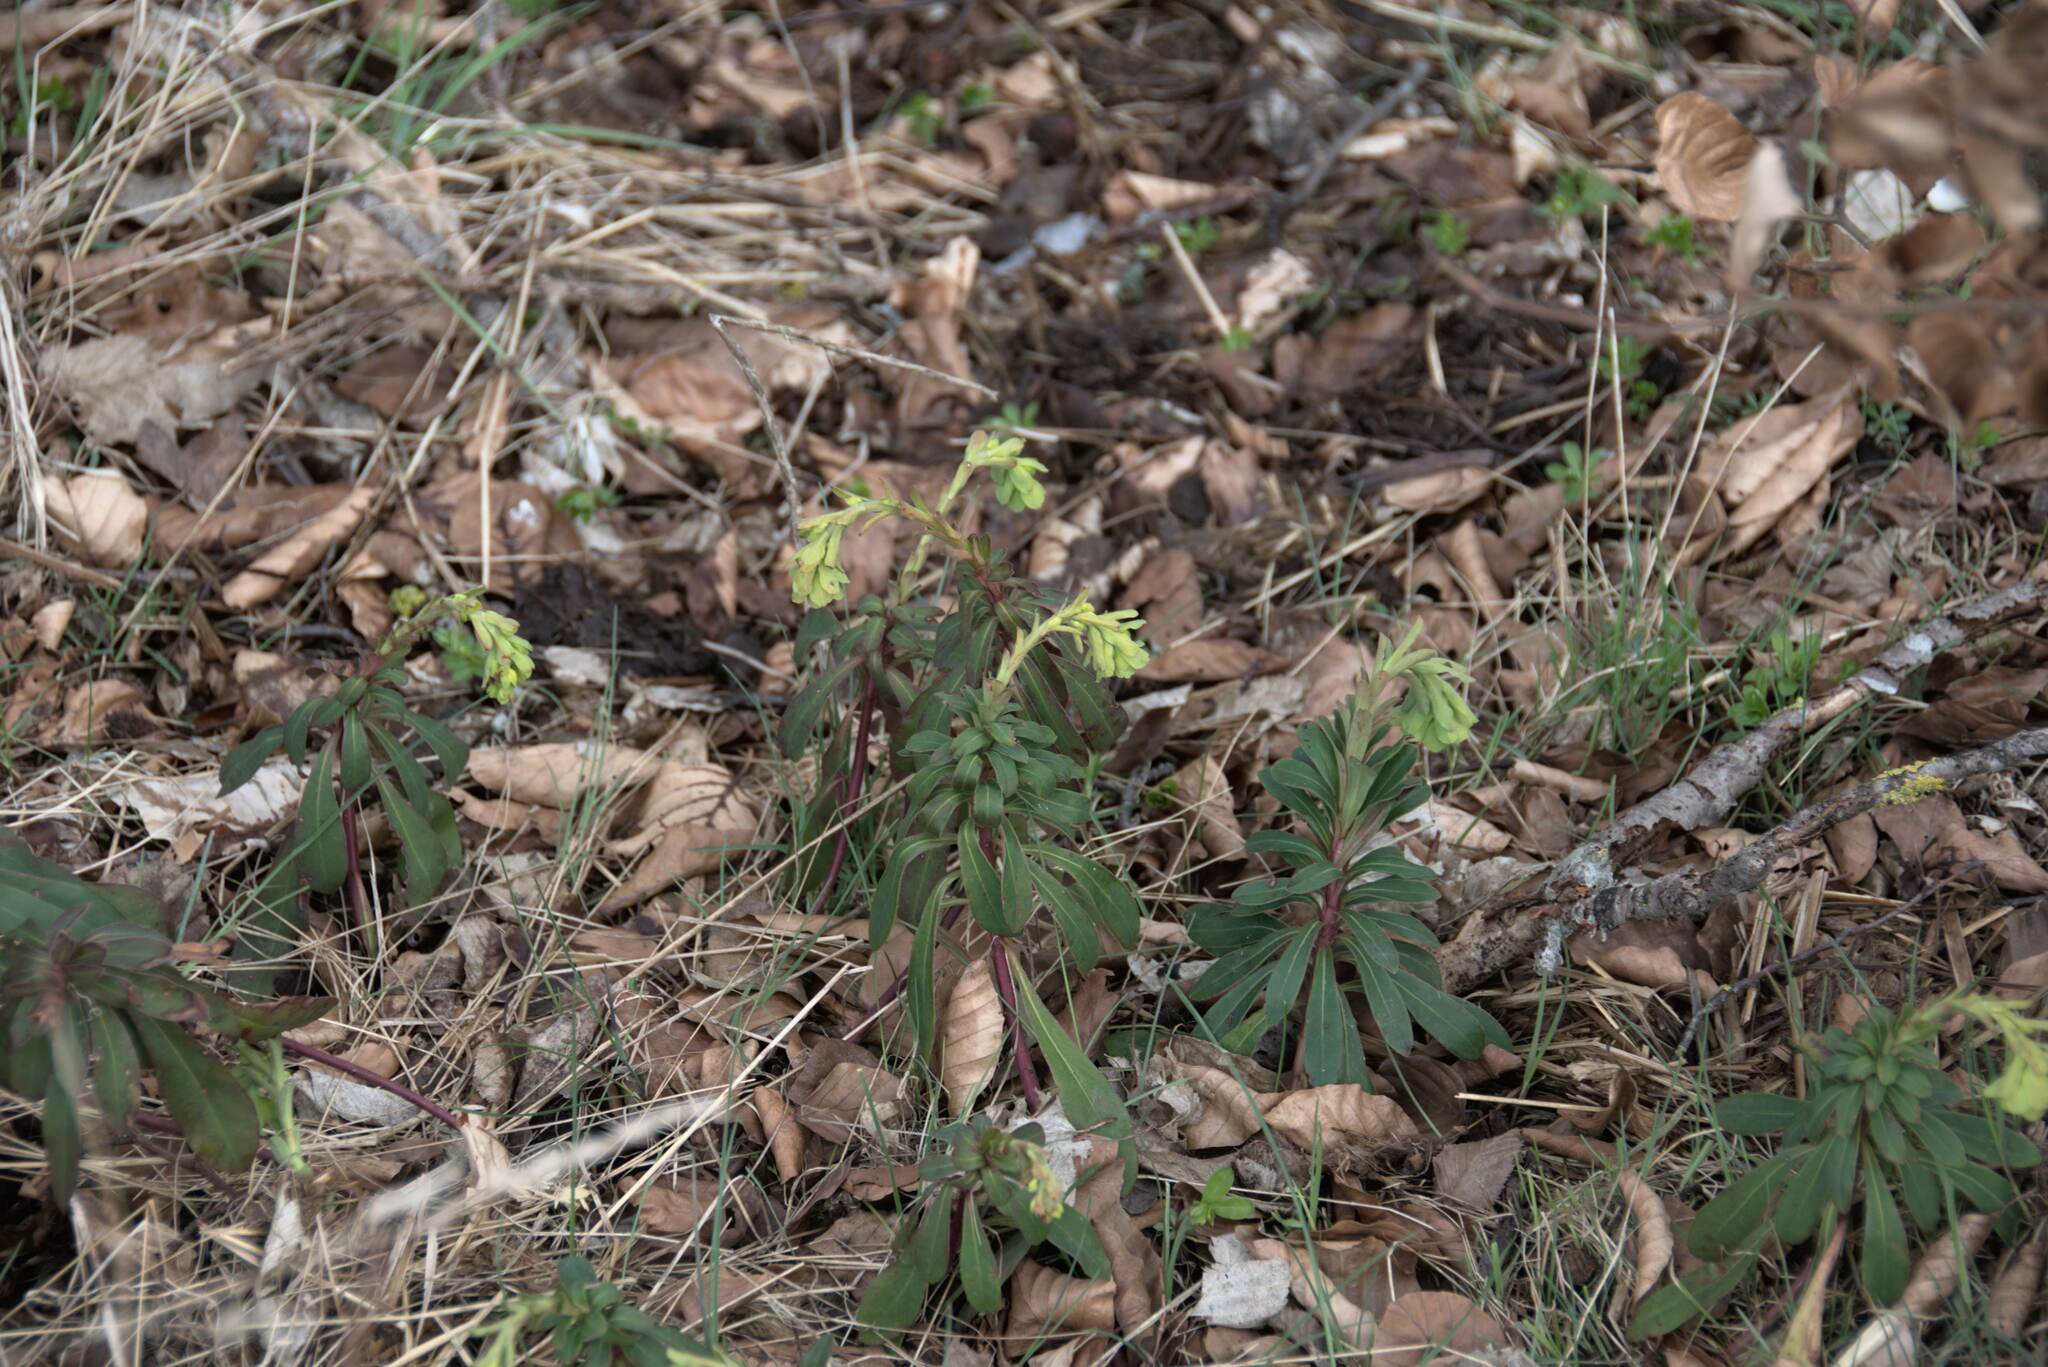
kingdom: Plantae
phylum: Tracheophyta
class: Magnoliopsida
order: Malpighiales
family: Euphorbiaceae
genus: Euphorbia
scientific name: Euphorbia amygdaloides
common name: Wood spurge
